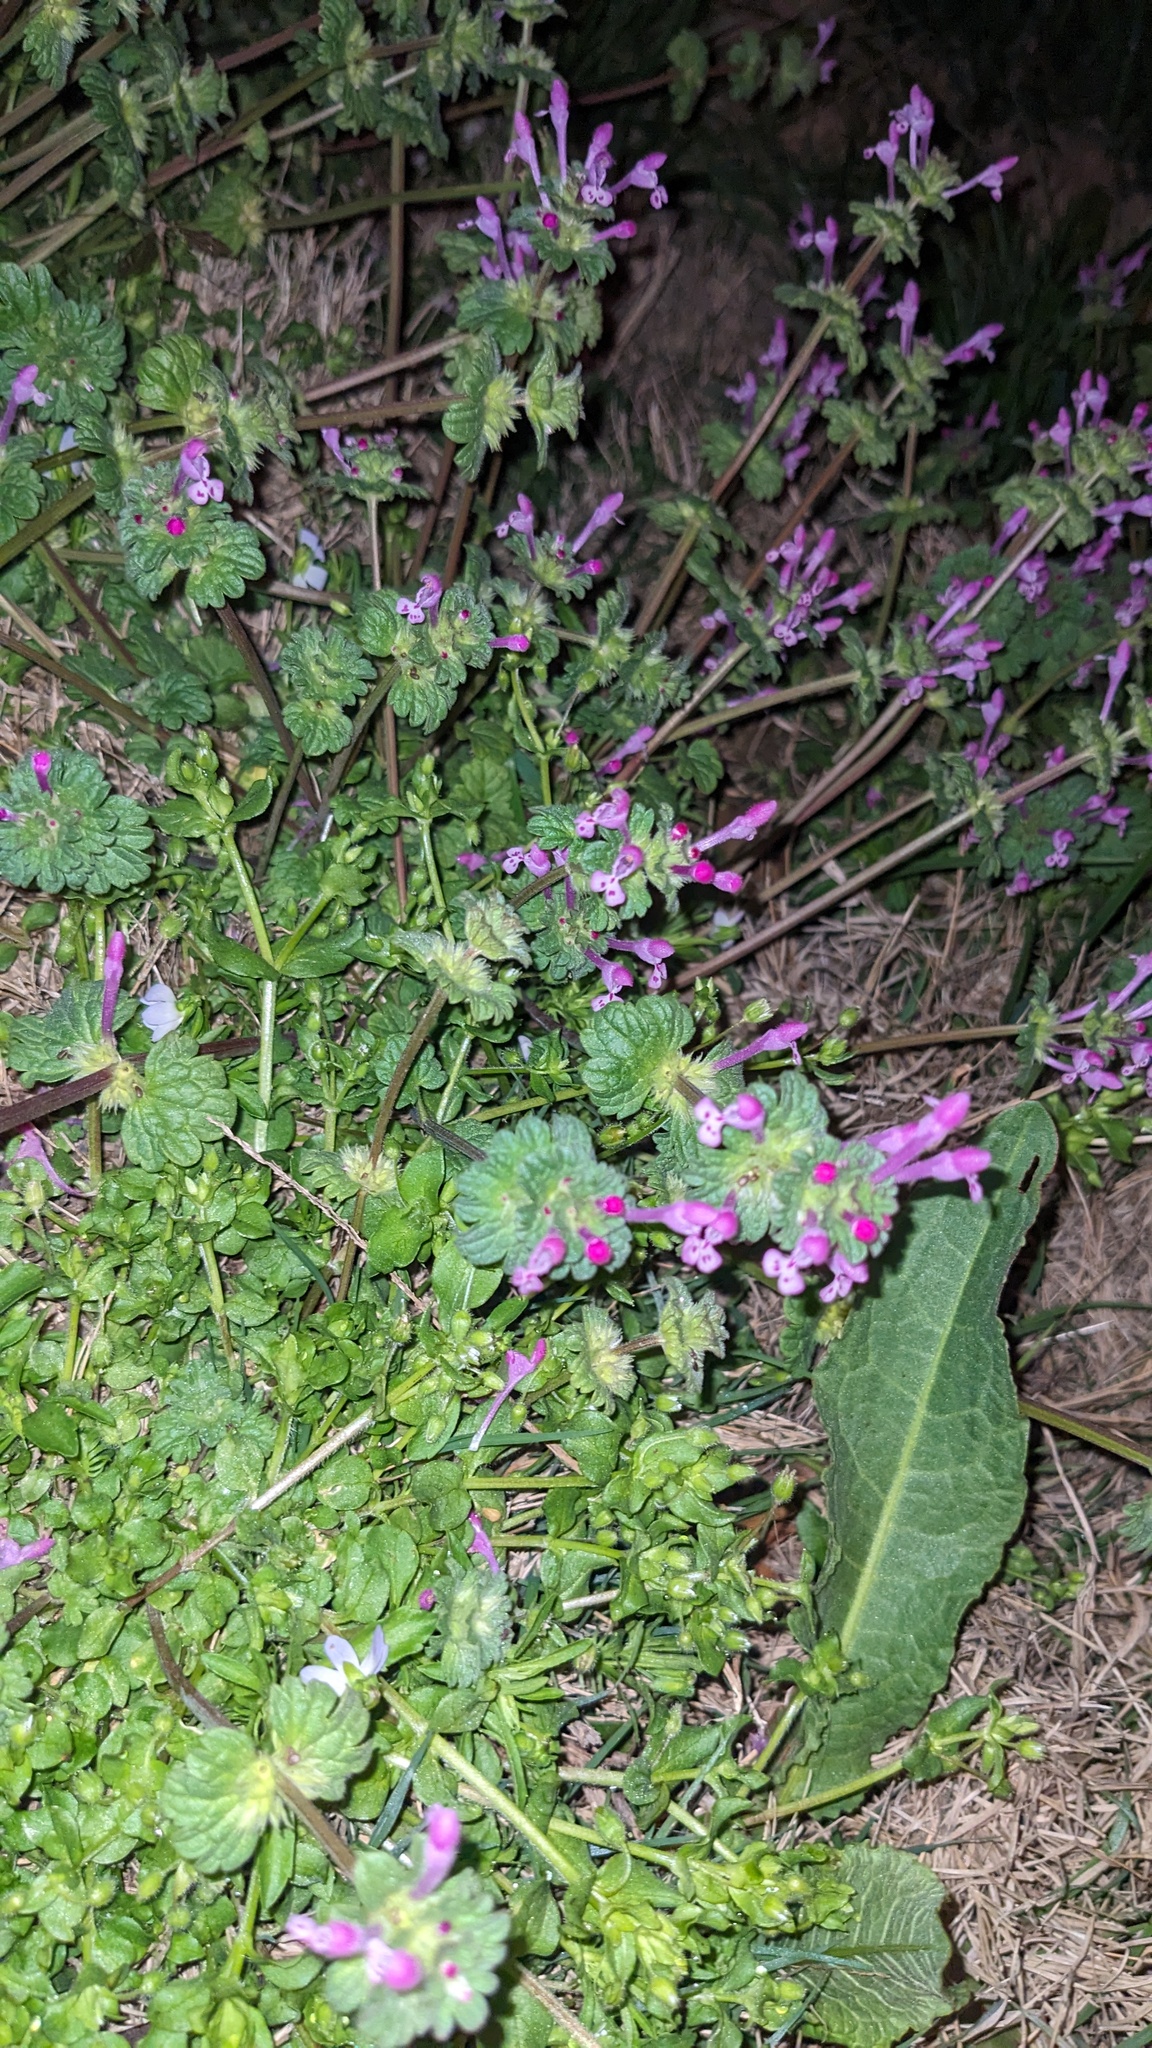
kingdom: Plantae
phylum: Tracheophyta
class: Magnoliopsida
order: Lamiales
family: Lamiaceae
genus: Lamium
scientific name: Lamium amplexicaule
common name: Henbit dead-nettle
